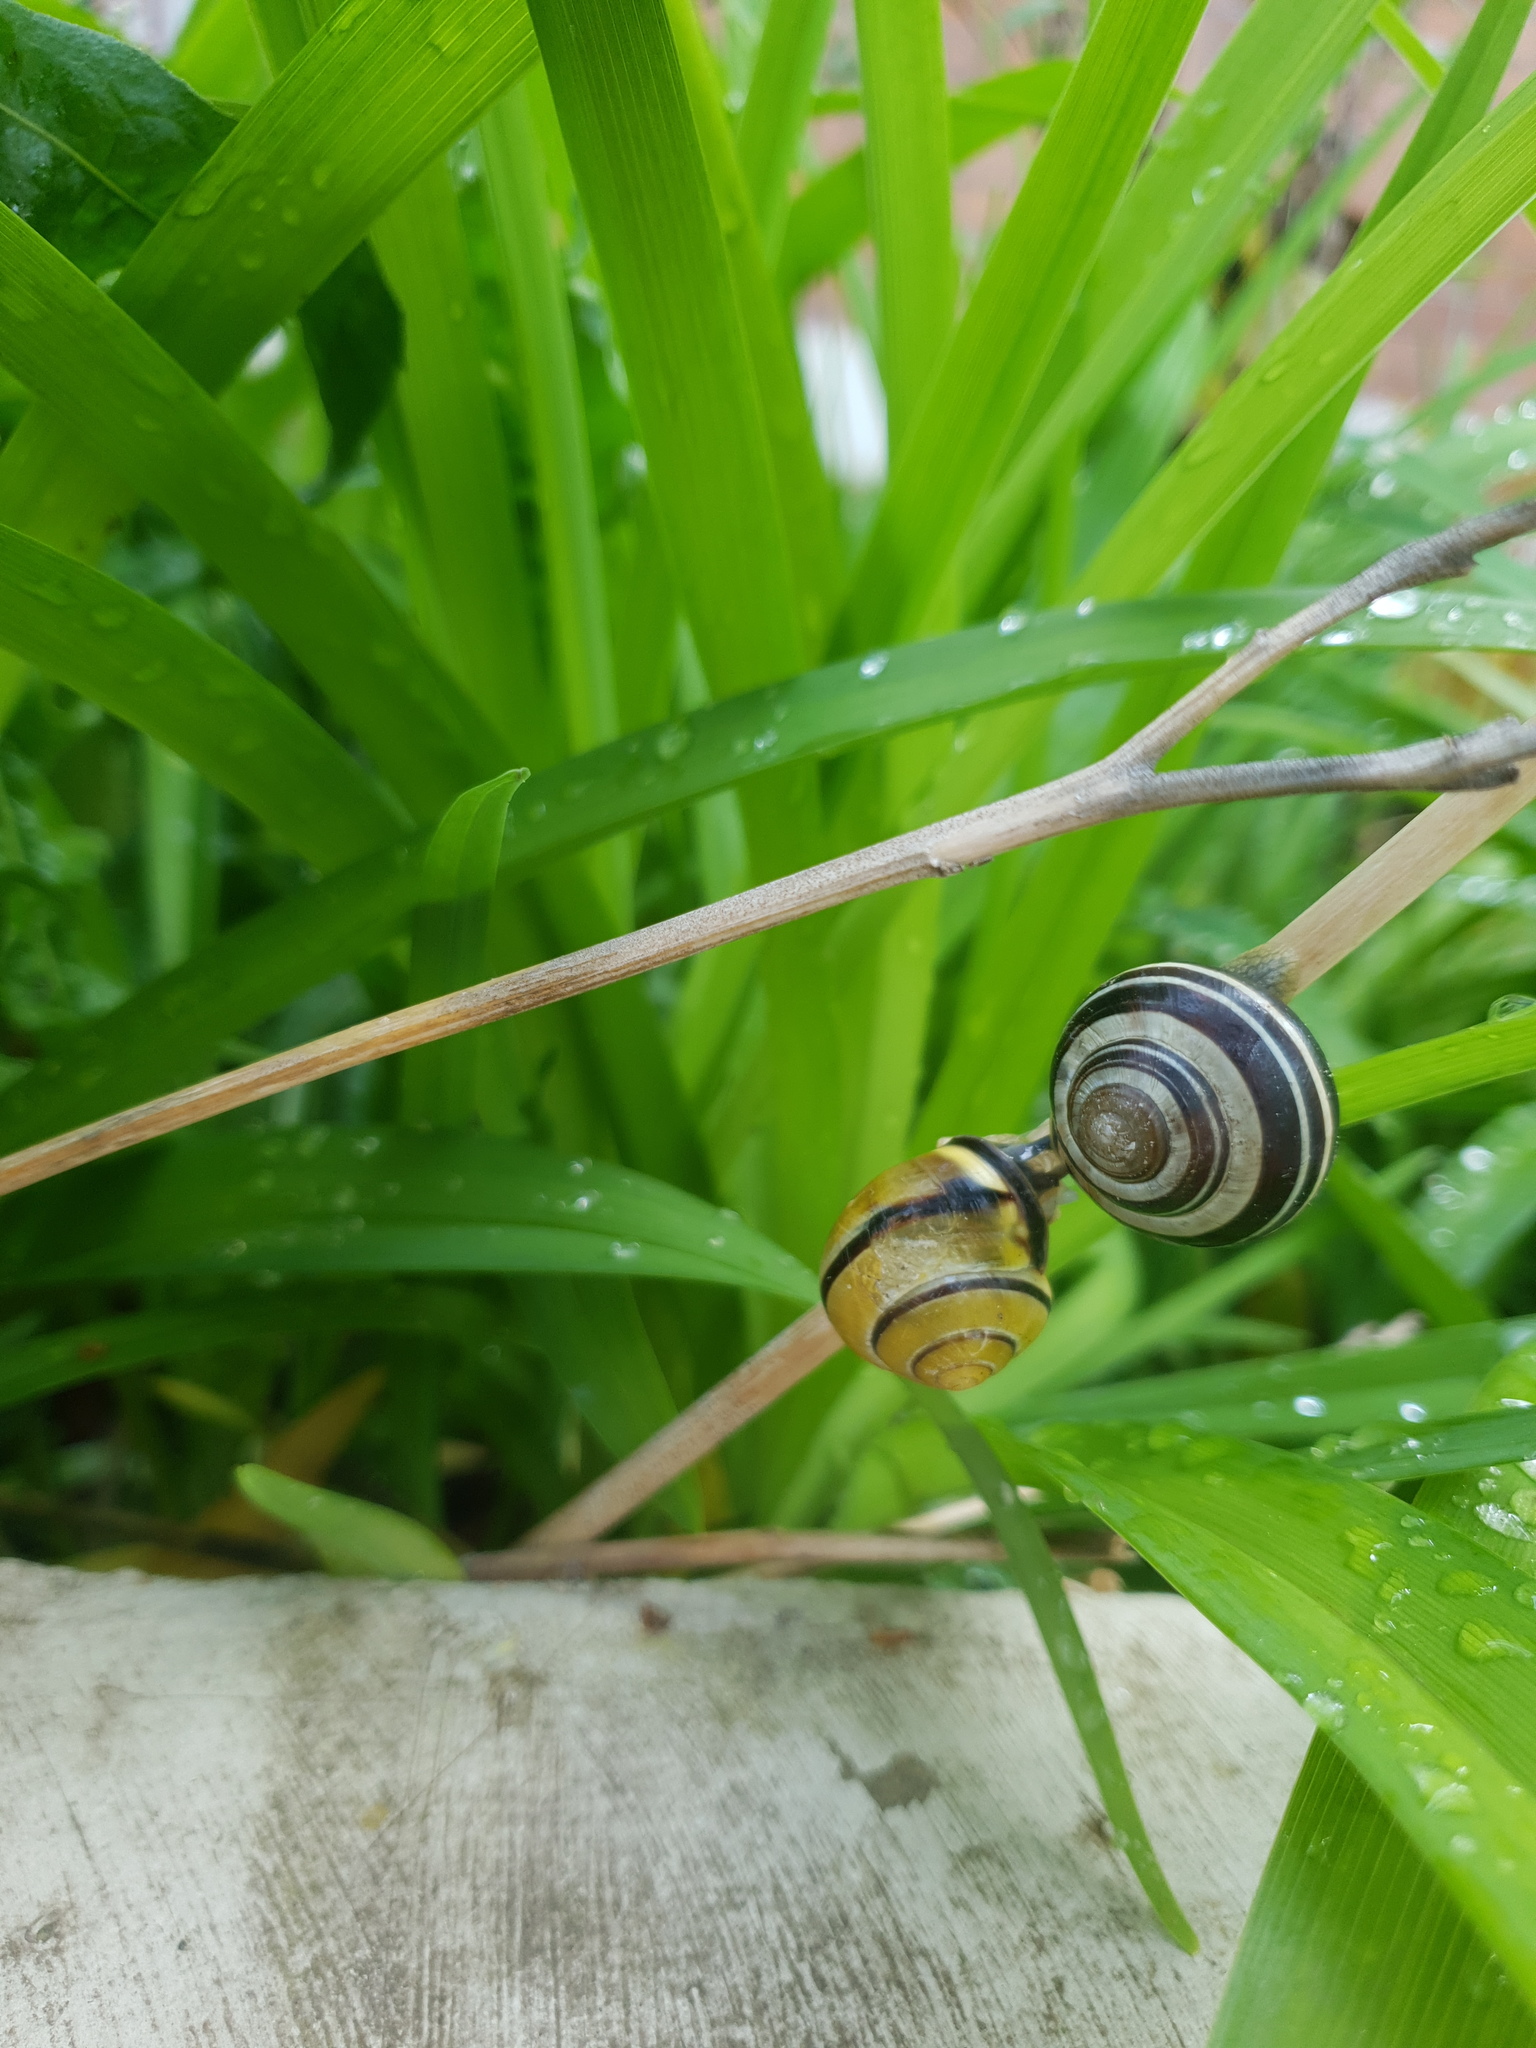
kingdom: Animalia
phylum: Mollusca
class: Gastropoda
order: Stylommatophora
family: Helicidae
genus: Cepaea
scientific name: Cepaea nemoralis
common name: Grovesnail
